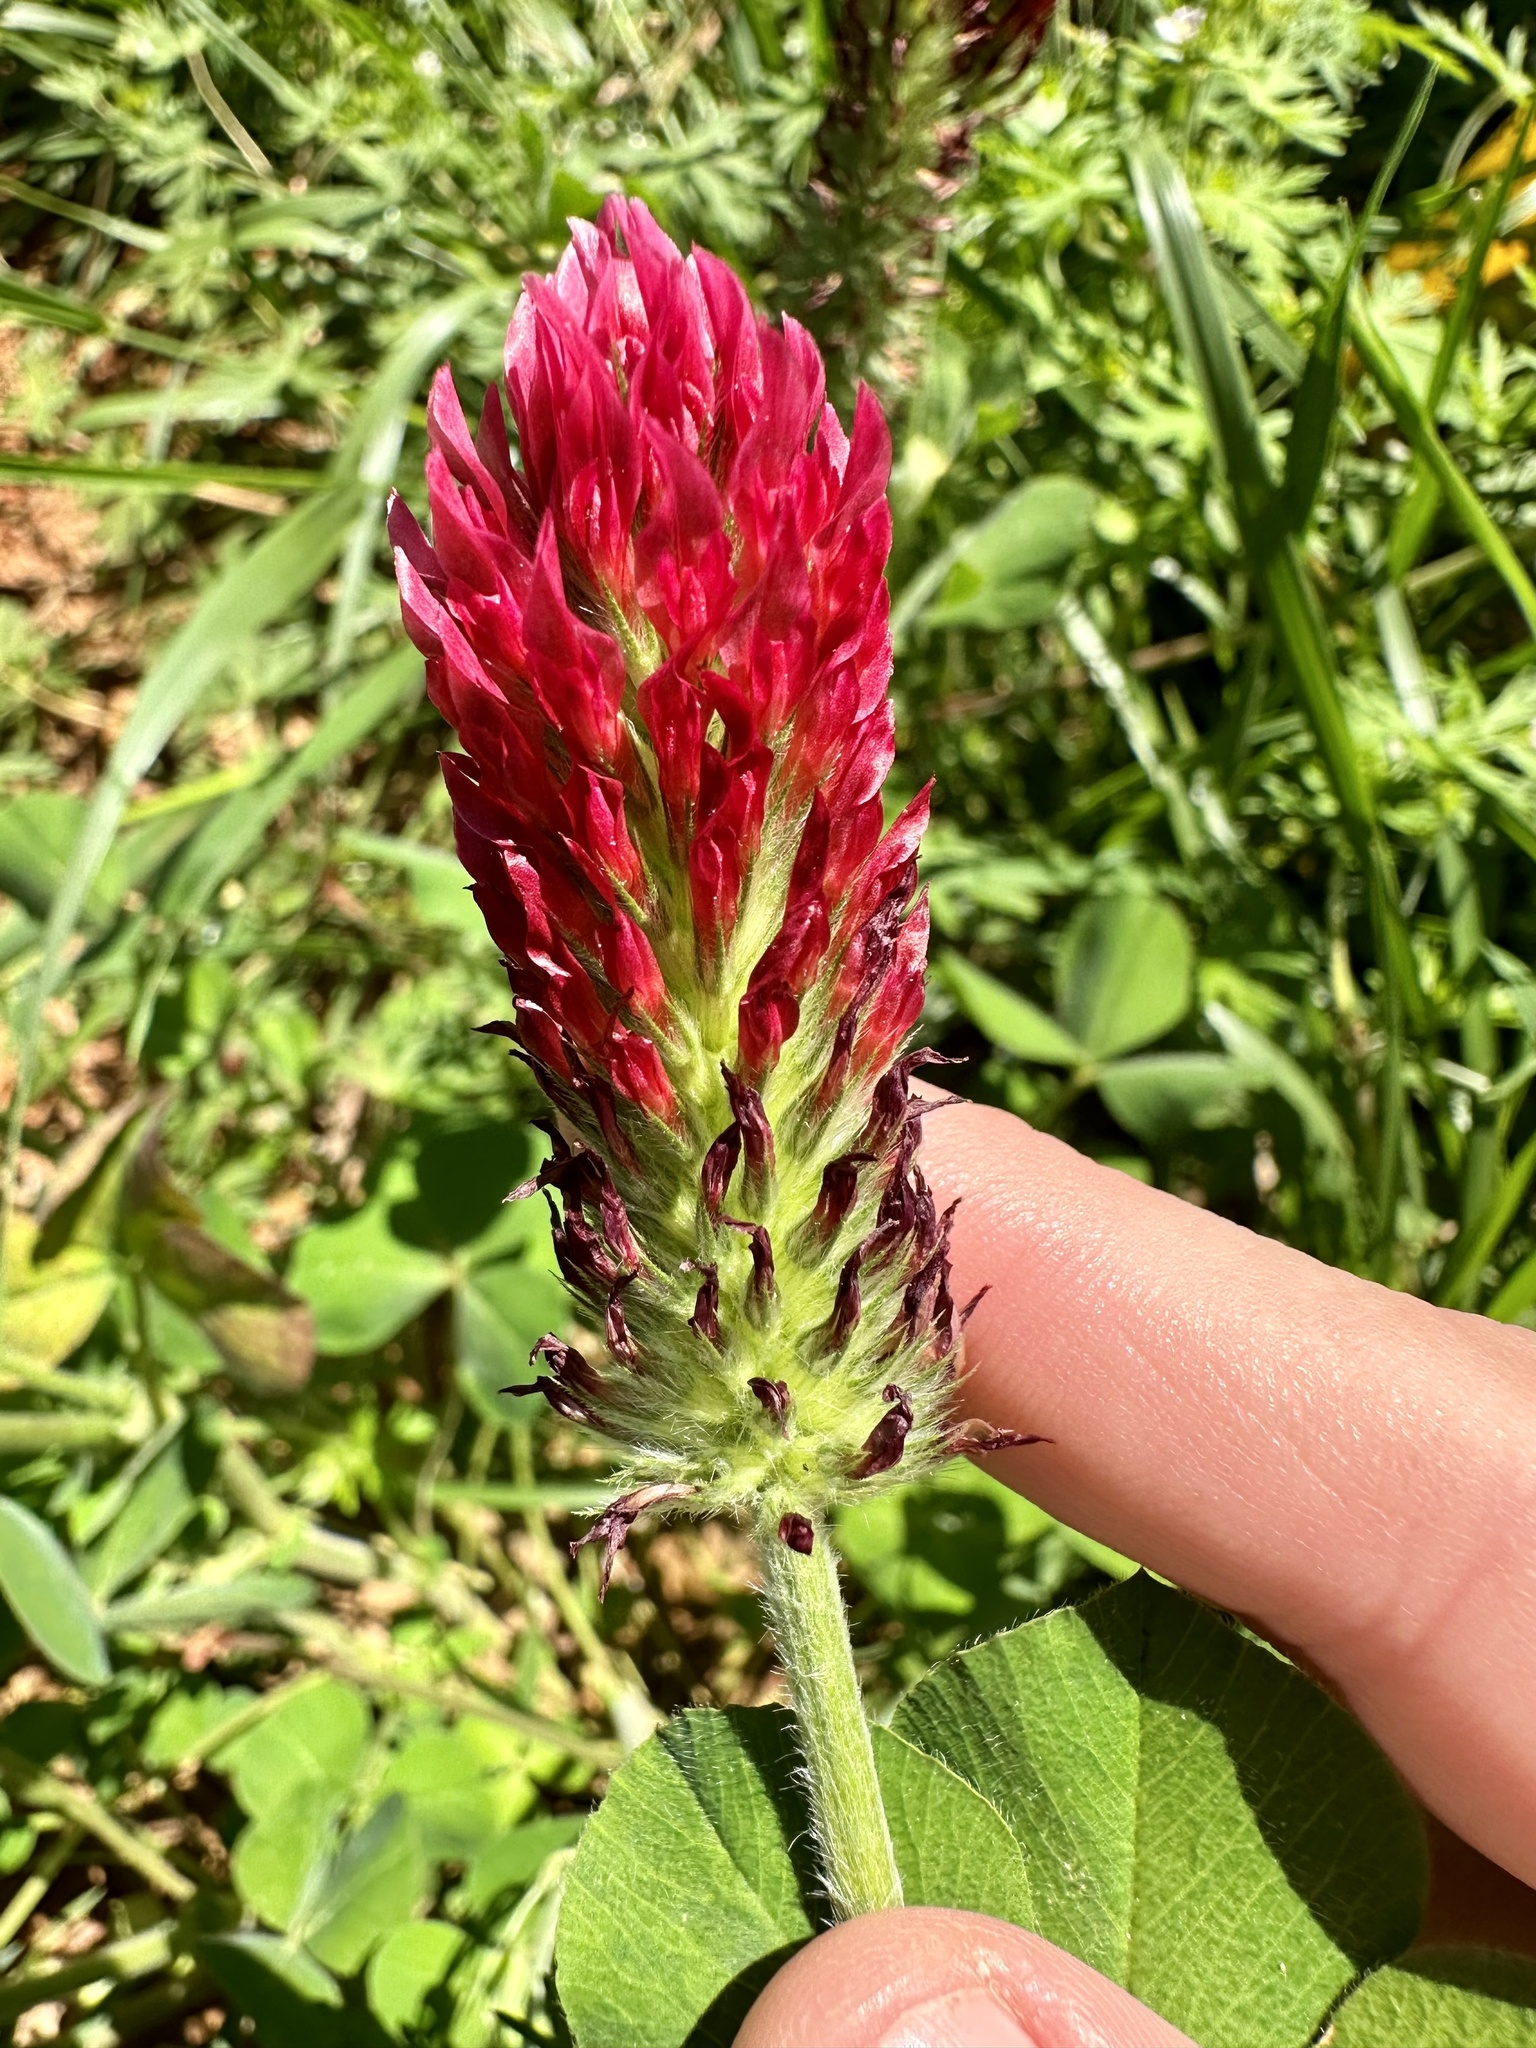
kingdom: Plantae
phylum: Tracheophyta
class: Magnoliopsida
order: Fabales
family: Fabaceae
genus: Trifolium
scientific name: Trifolium incarnatum
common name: Crimson clover
